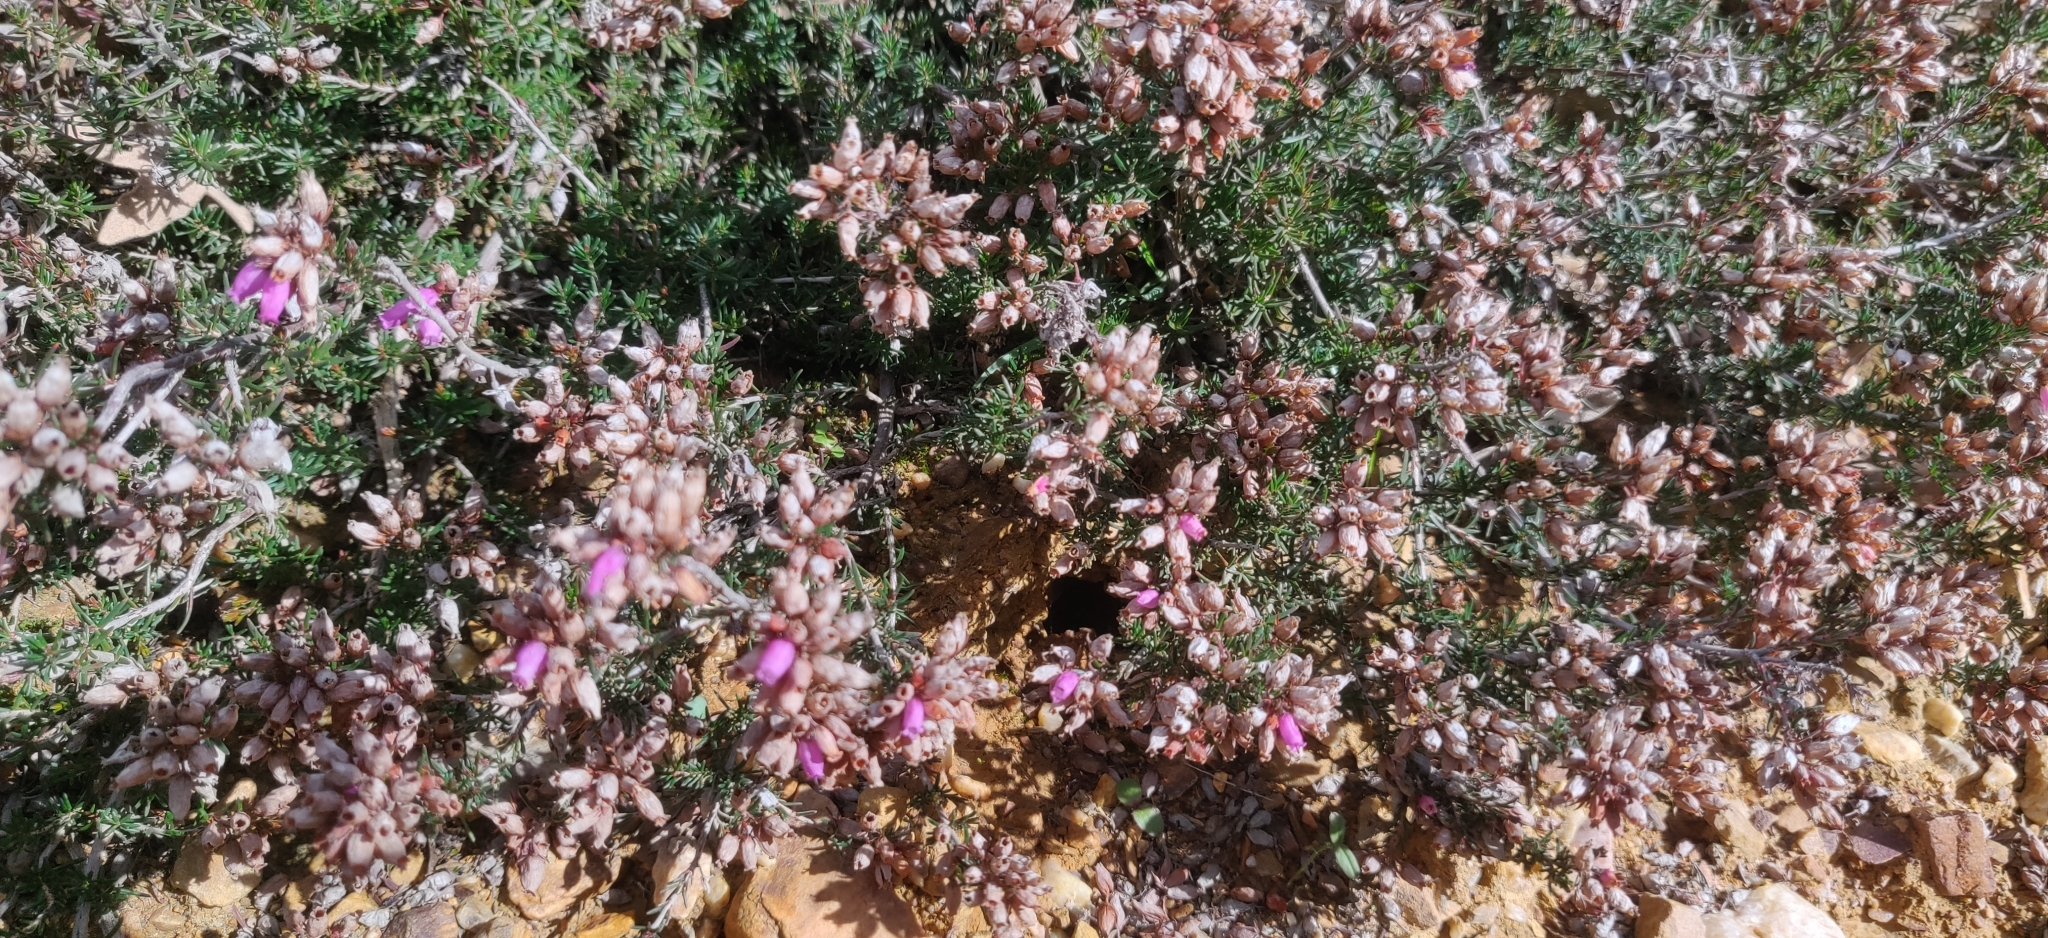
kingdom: Plantae
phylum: Tracheophyta
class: Magnoliopsida
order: Ericales
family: Ericaceae
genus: Erica
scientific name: Erica cinerea
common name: Bell heather
